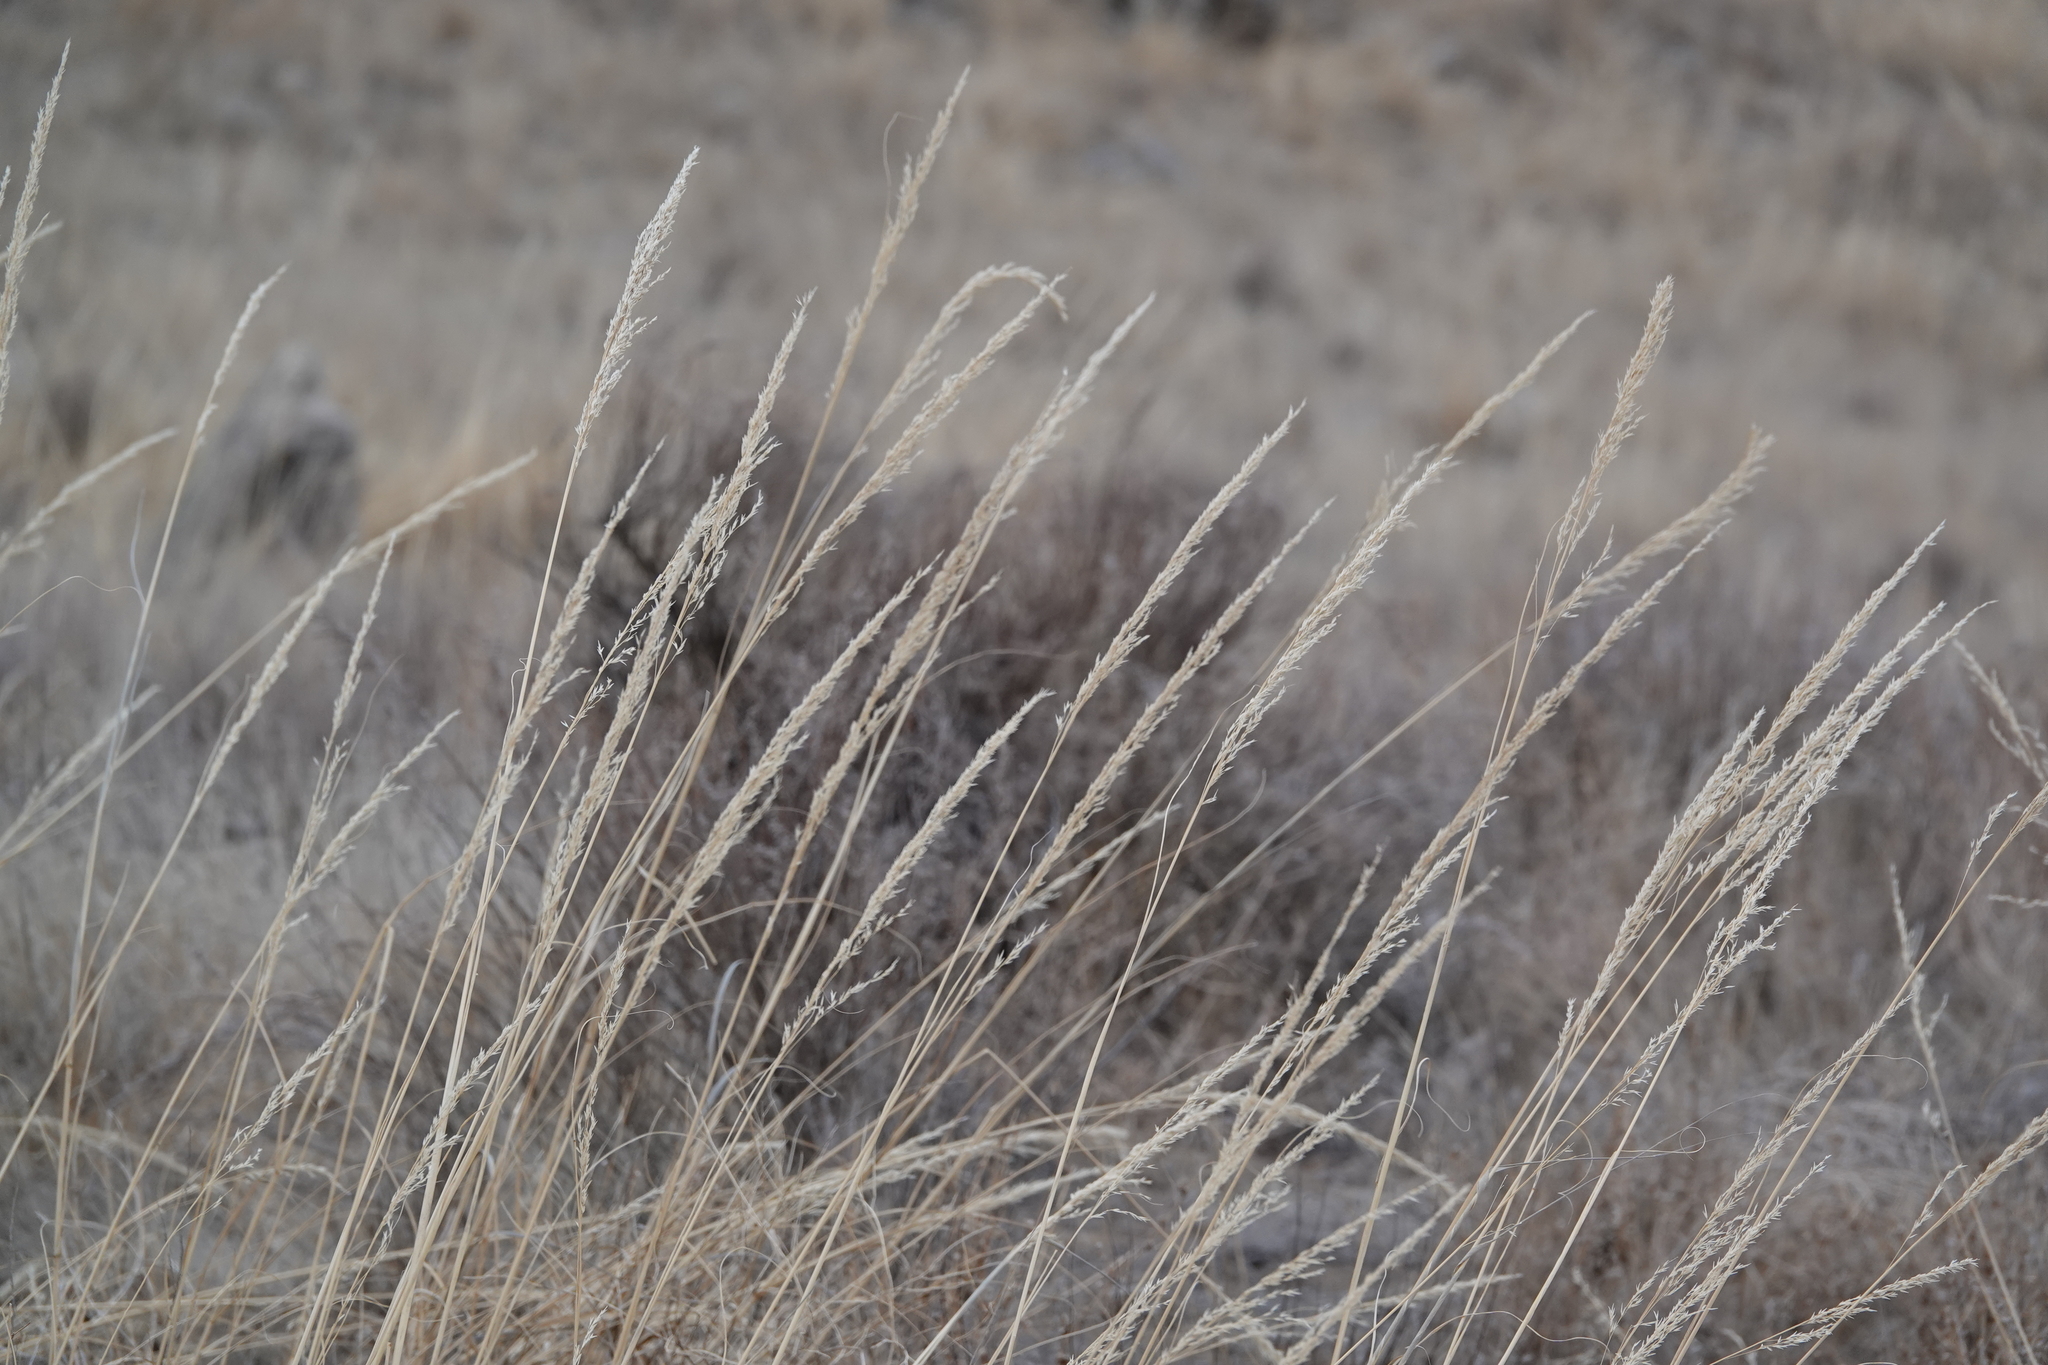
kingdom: Plantae
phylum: Tracheophyta
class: Liliopsida
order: Poales
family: Poaceae
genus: Sporobolus
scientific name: Sporobolus rigidus
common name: Prairie sandreed
